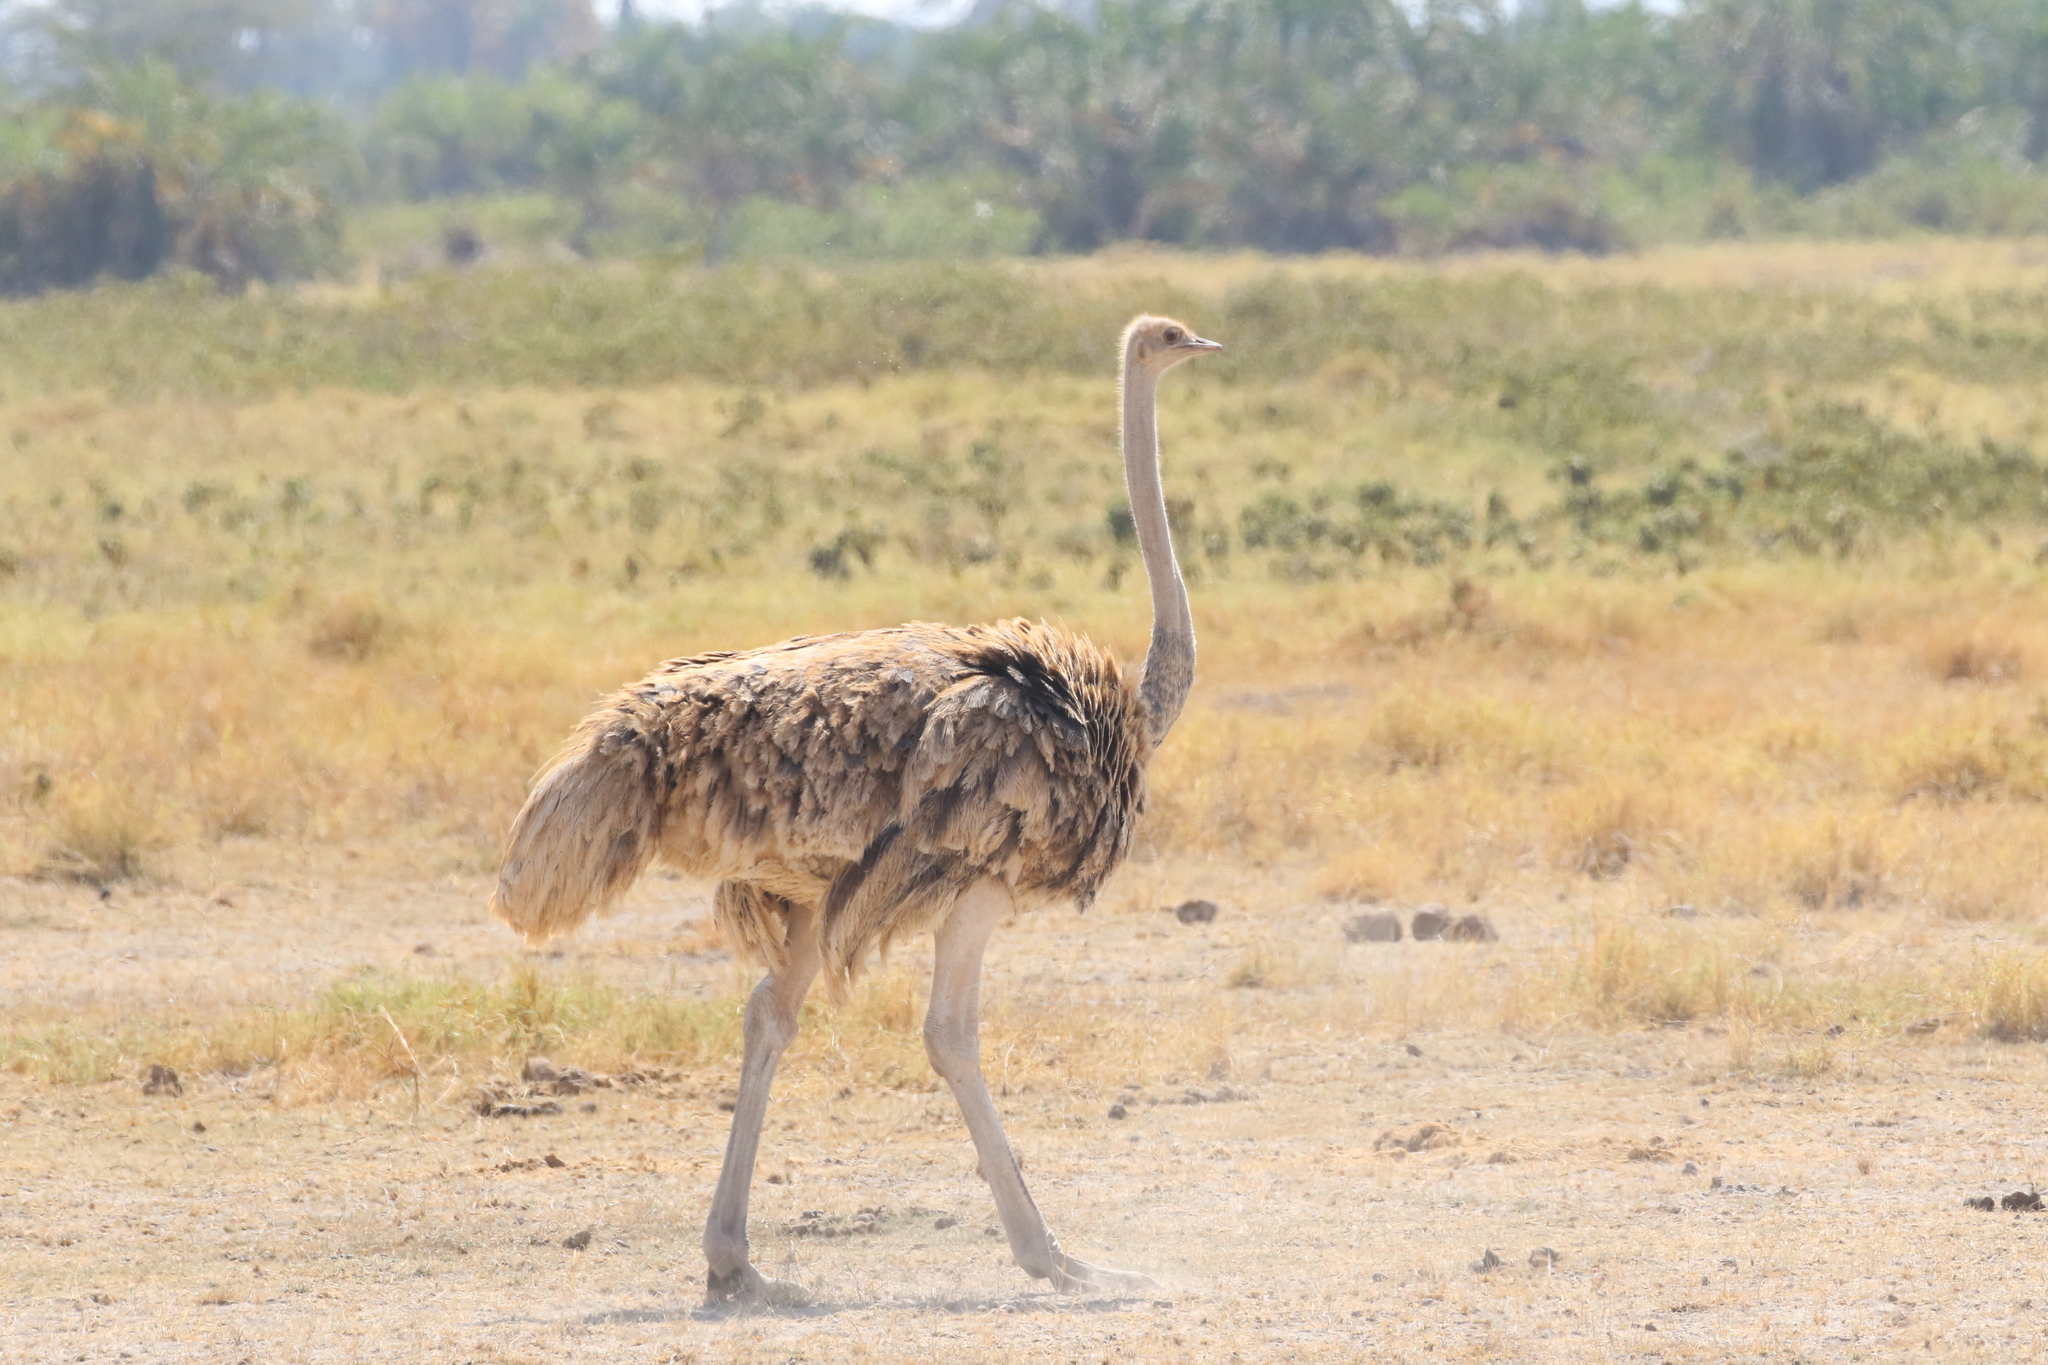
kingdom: Animalia
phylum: Chordata
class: Aves
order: Struthioniformes
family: Struthionidae
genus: Struthio
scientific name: Struthio camelus
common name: Common ostrich
